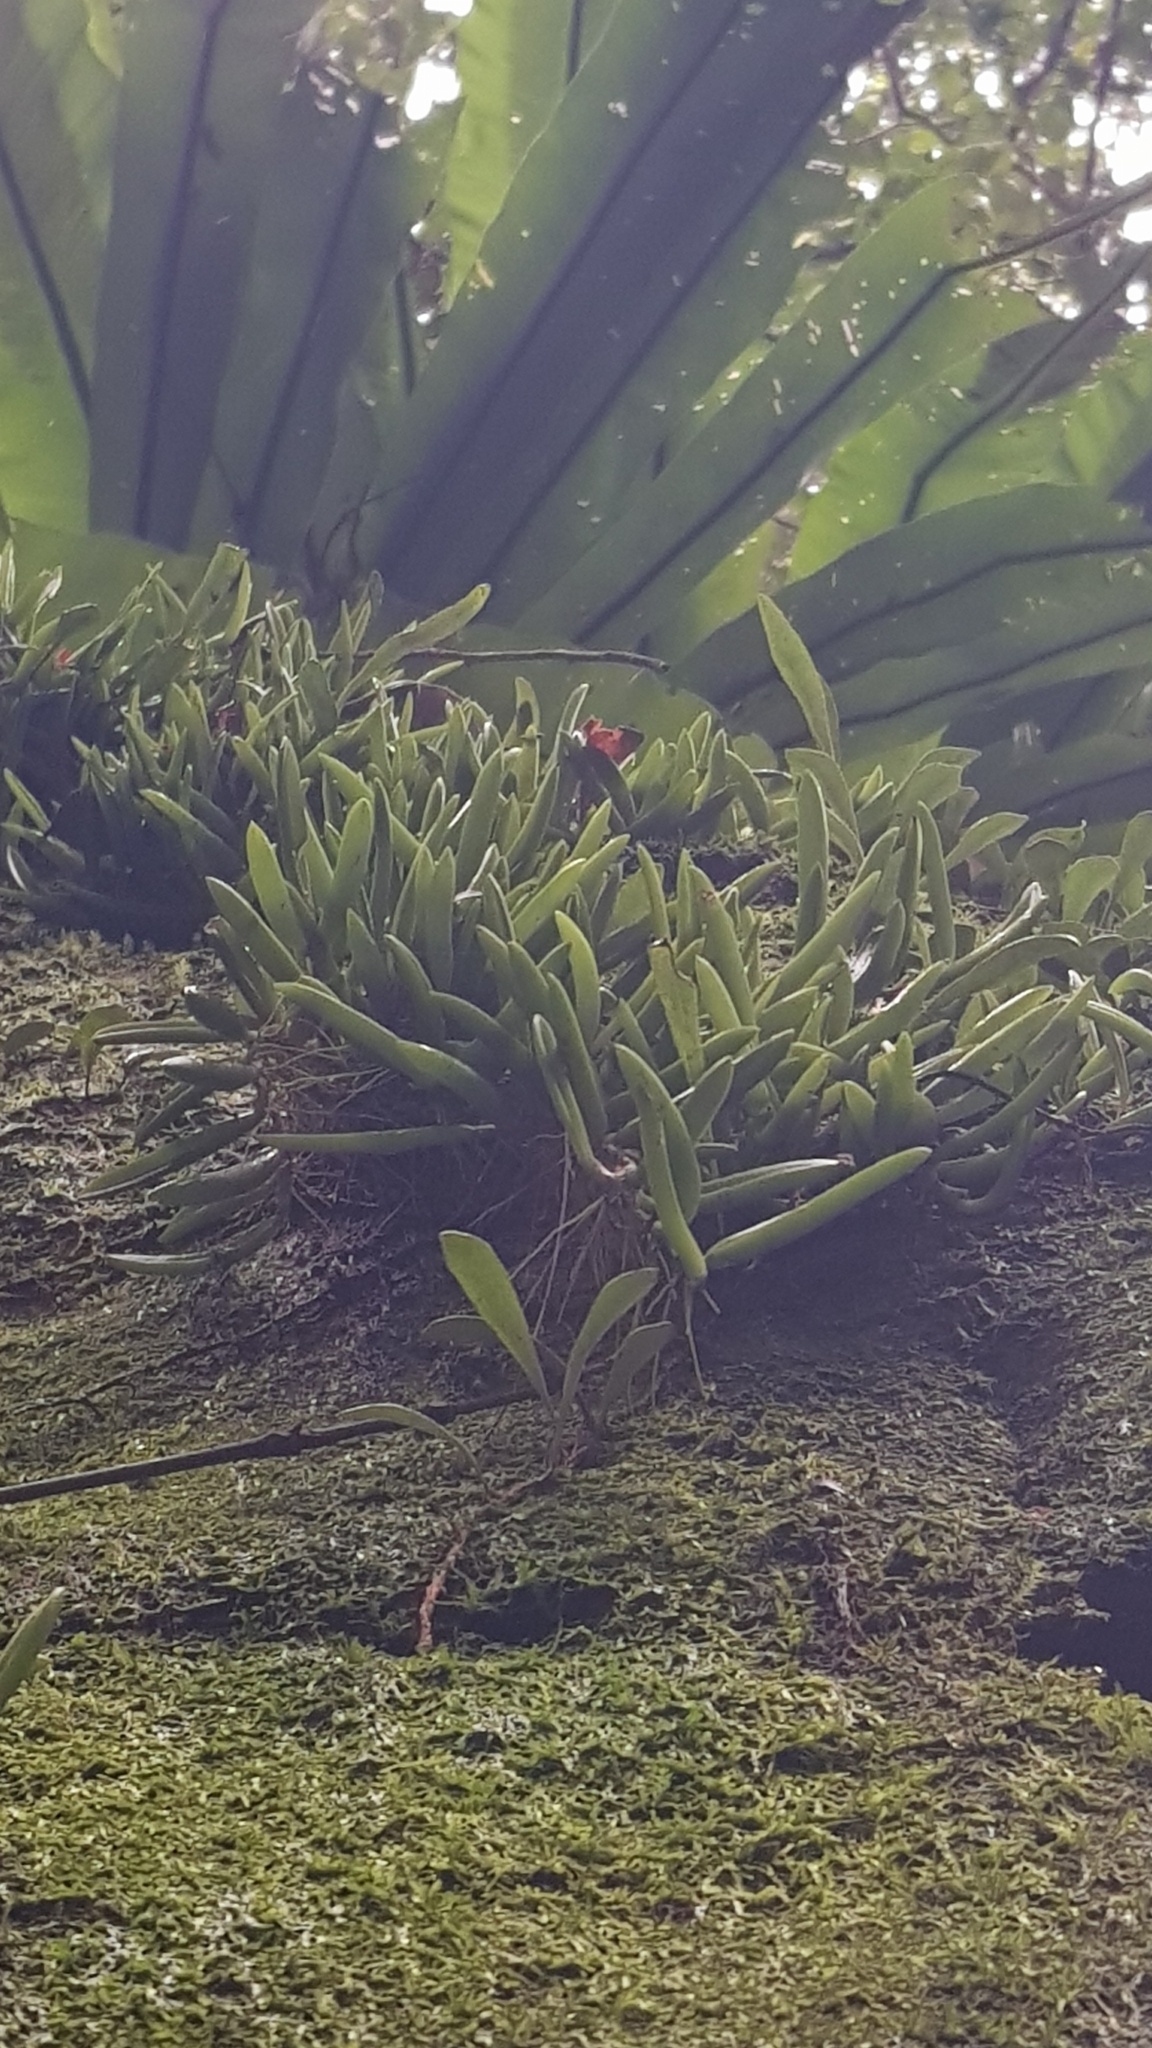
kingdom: Plantae
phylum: Tracheophyta
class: Liliopsida
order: Asparagales
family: Orchidaceae
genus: Bulbophyllum
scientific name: Bulbophyllum shepherdii
